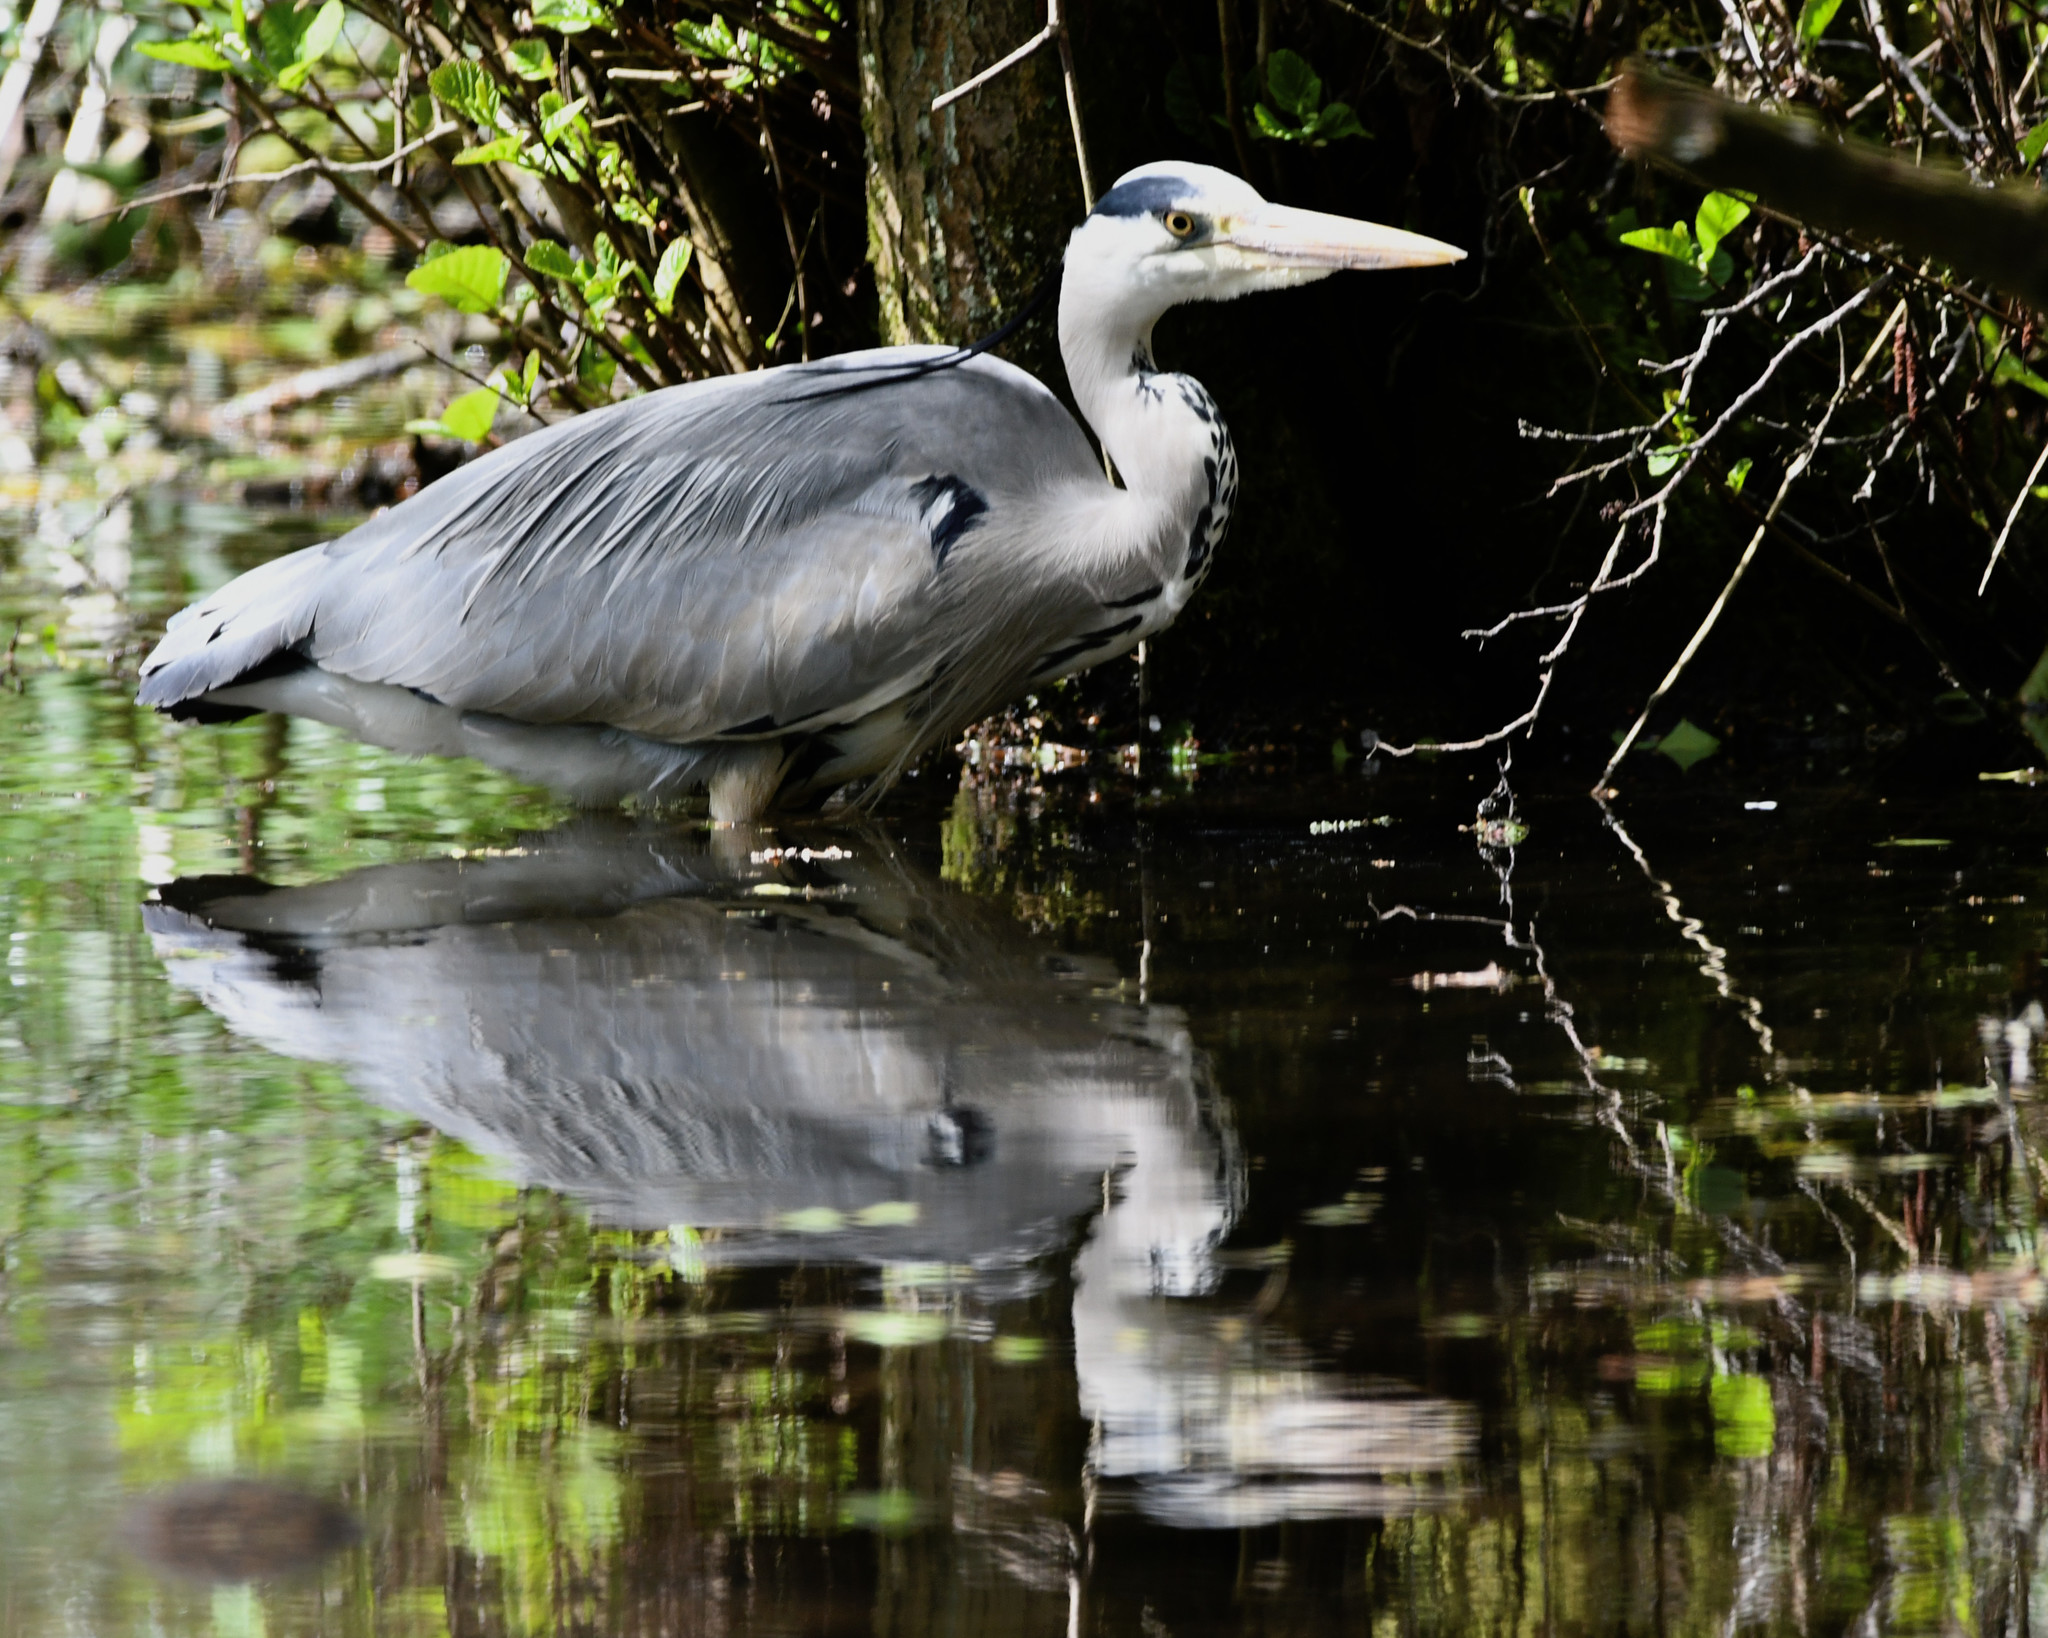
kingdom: Animalia
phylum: Chordata
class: Aves
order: Pelecaniformes
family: Ardeidae
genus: Ardea
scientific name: Ardea cinerea
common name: Grey heron
